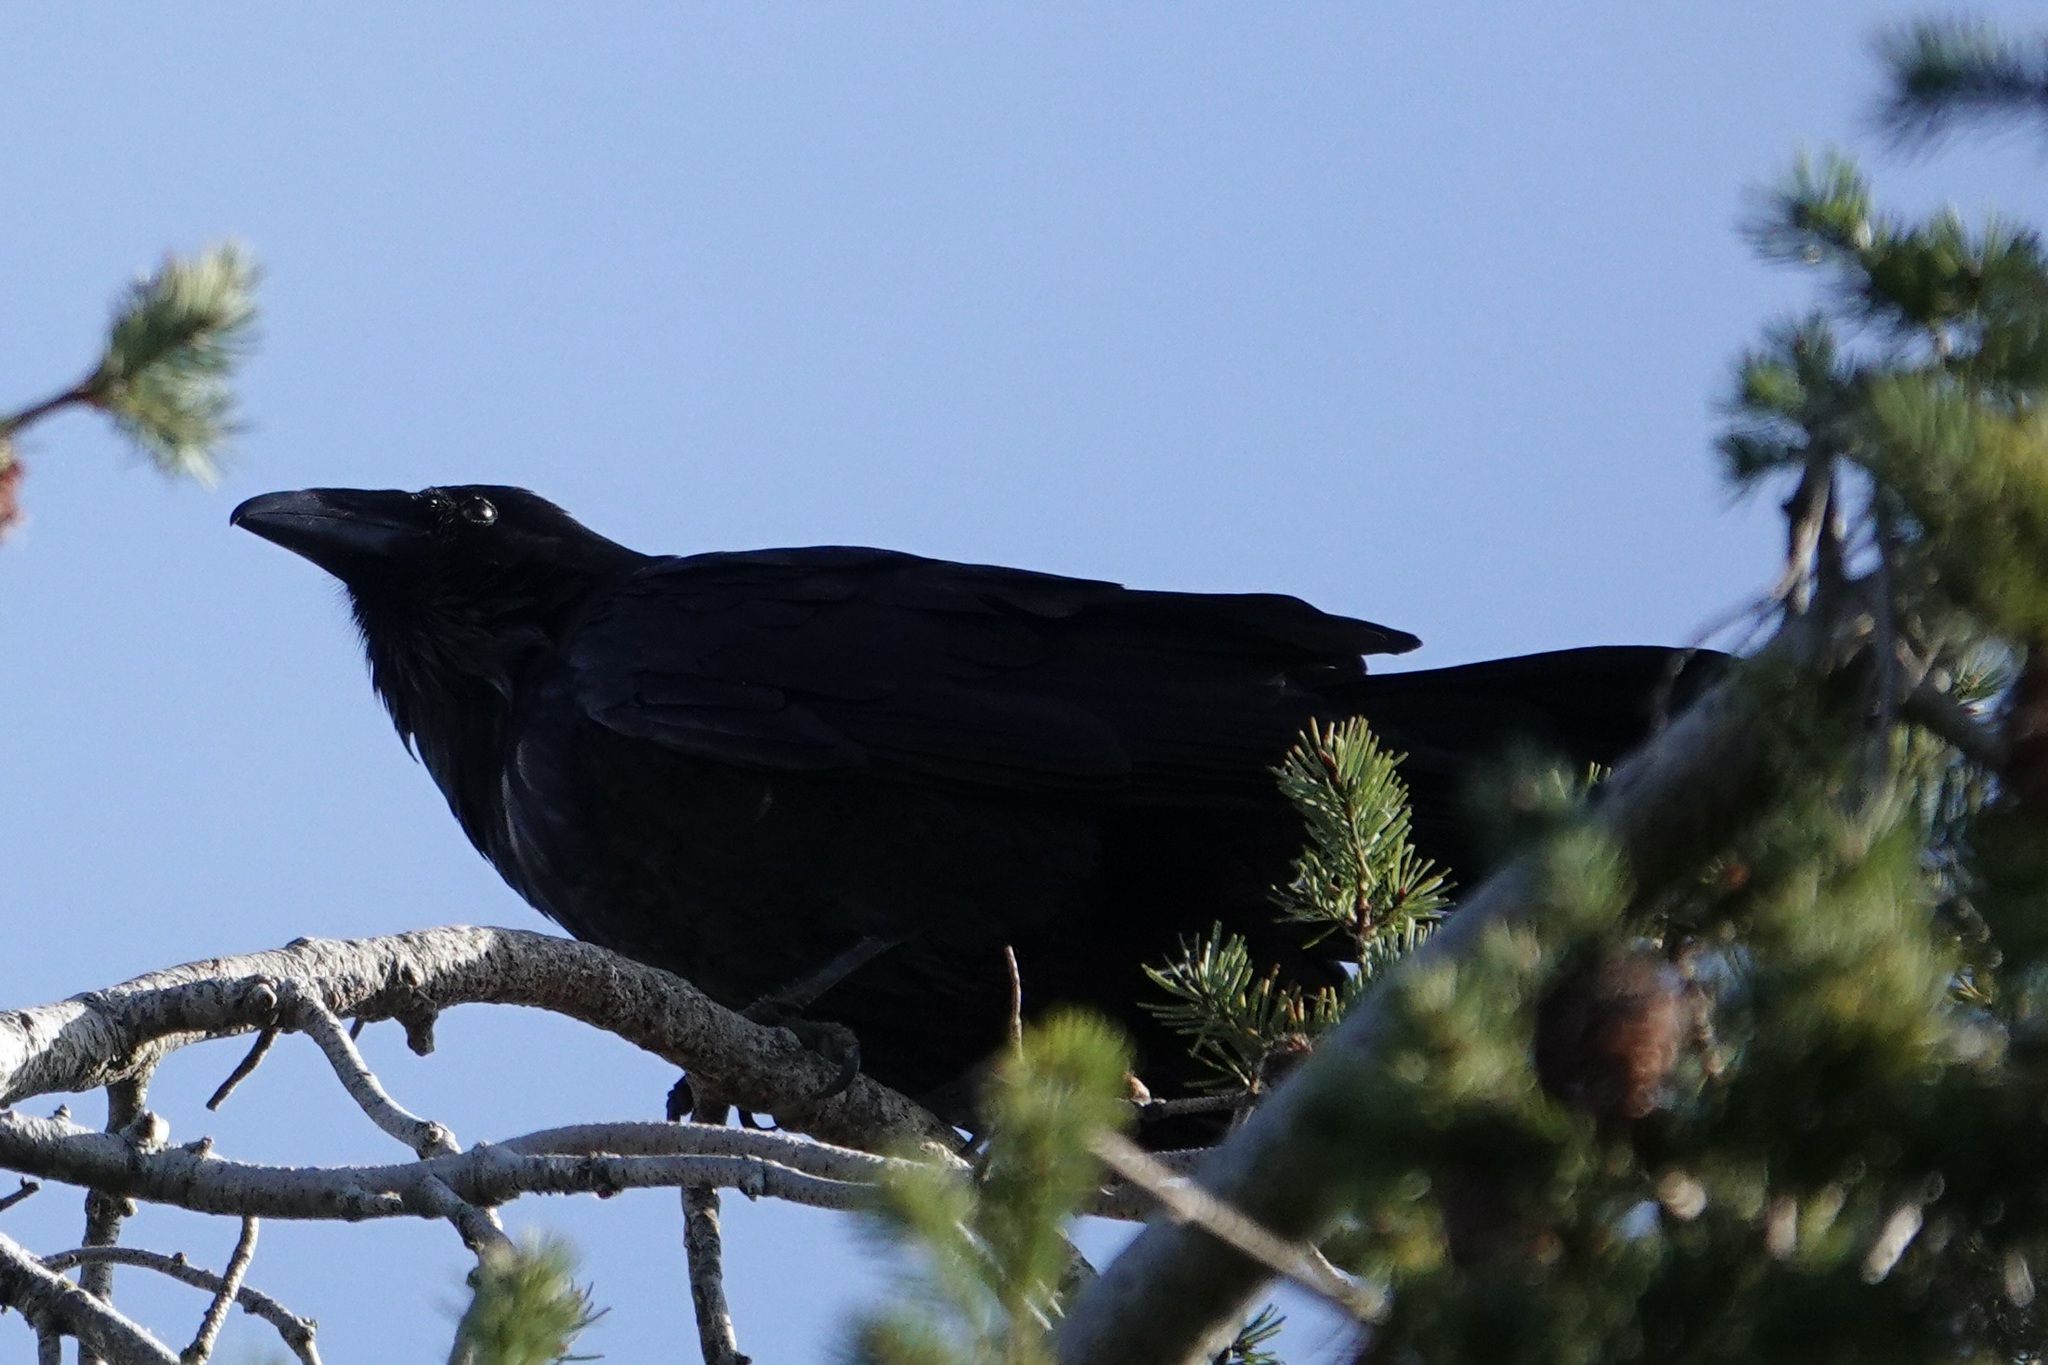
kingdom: Animalia
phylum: Chordata
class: Aves
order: Passeriformes
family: Corvidae
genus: Corvus
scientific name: Corvus corax
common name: Common raven
